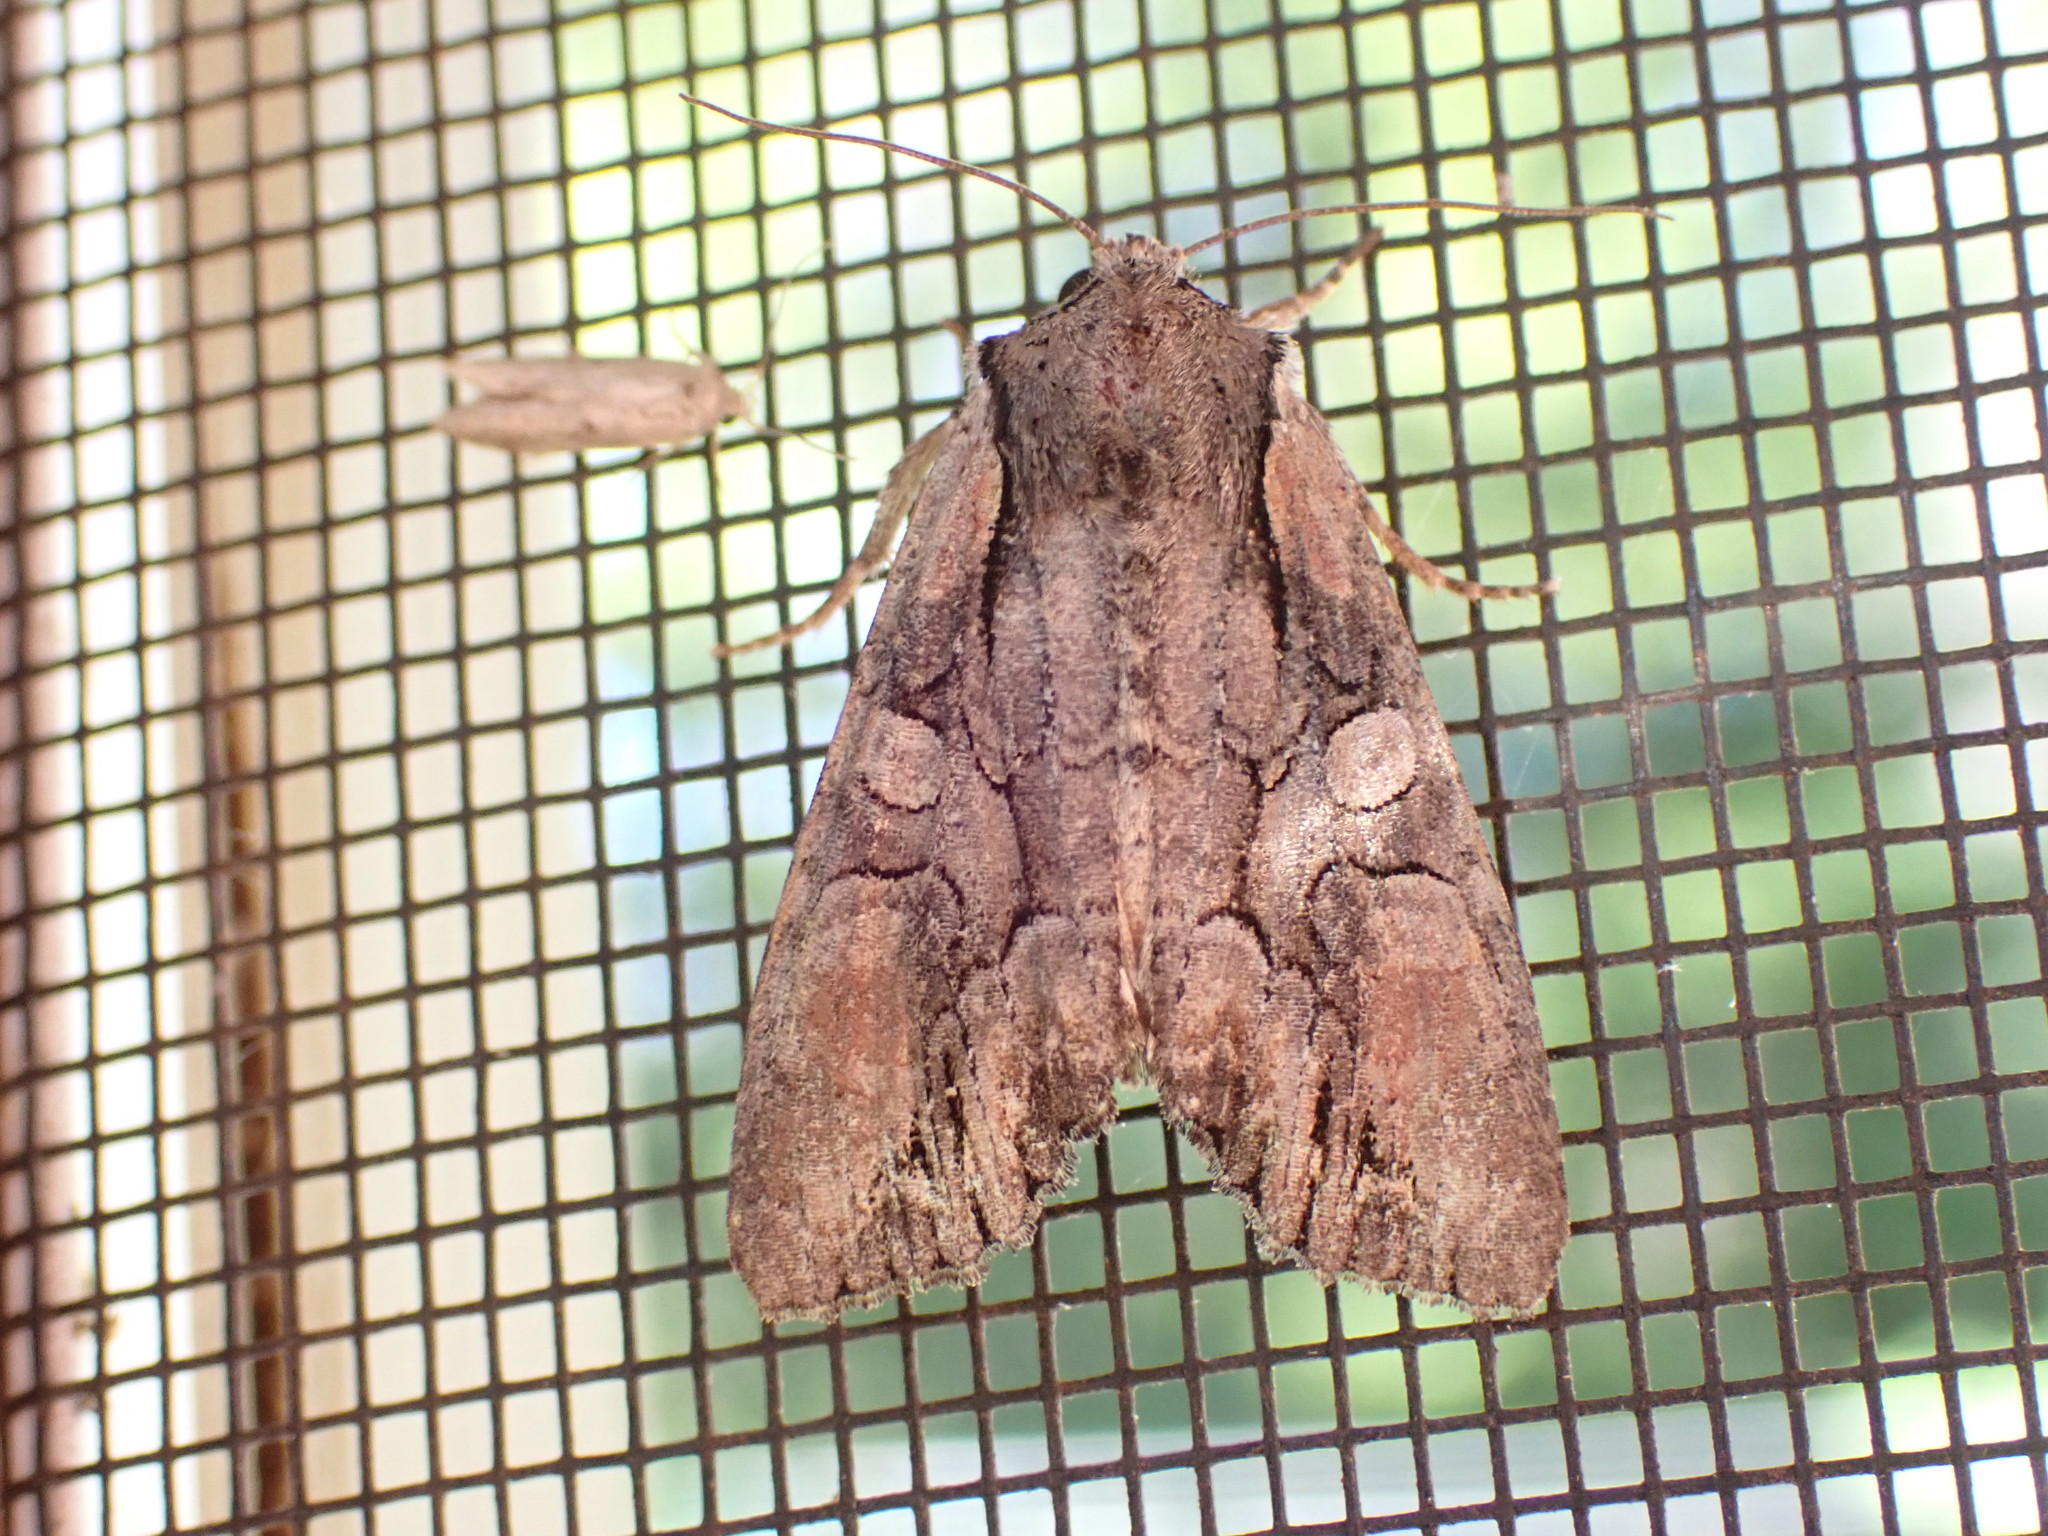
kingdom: Animalia
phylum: Arthropoda
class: Insecta
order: Lepidoptera
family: Noctuidae
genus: Lacanobia
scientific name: Lacanobia subjuncta
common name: Speckled cutworm moth
